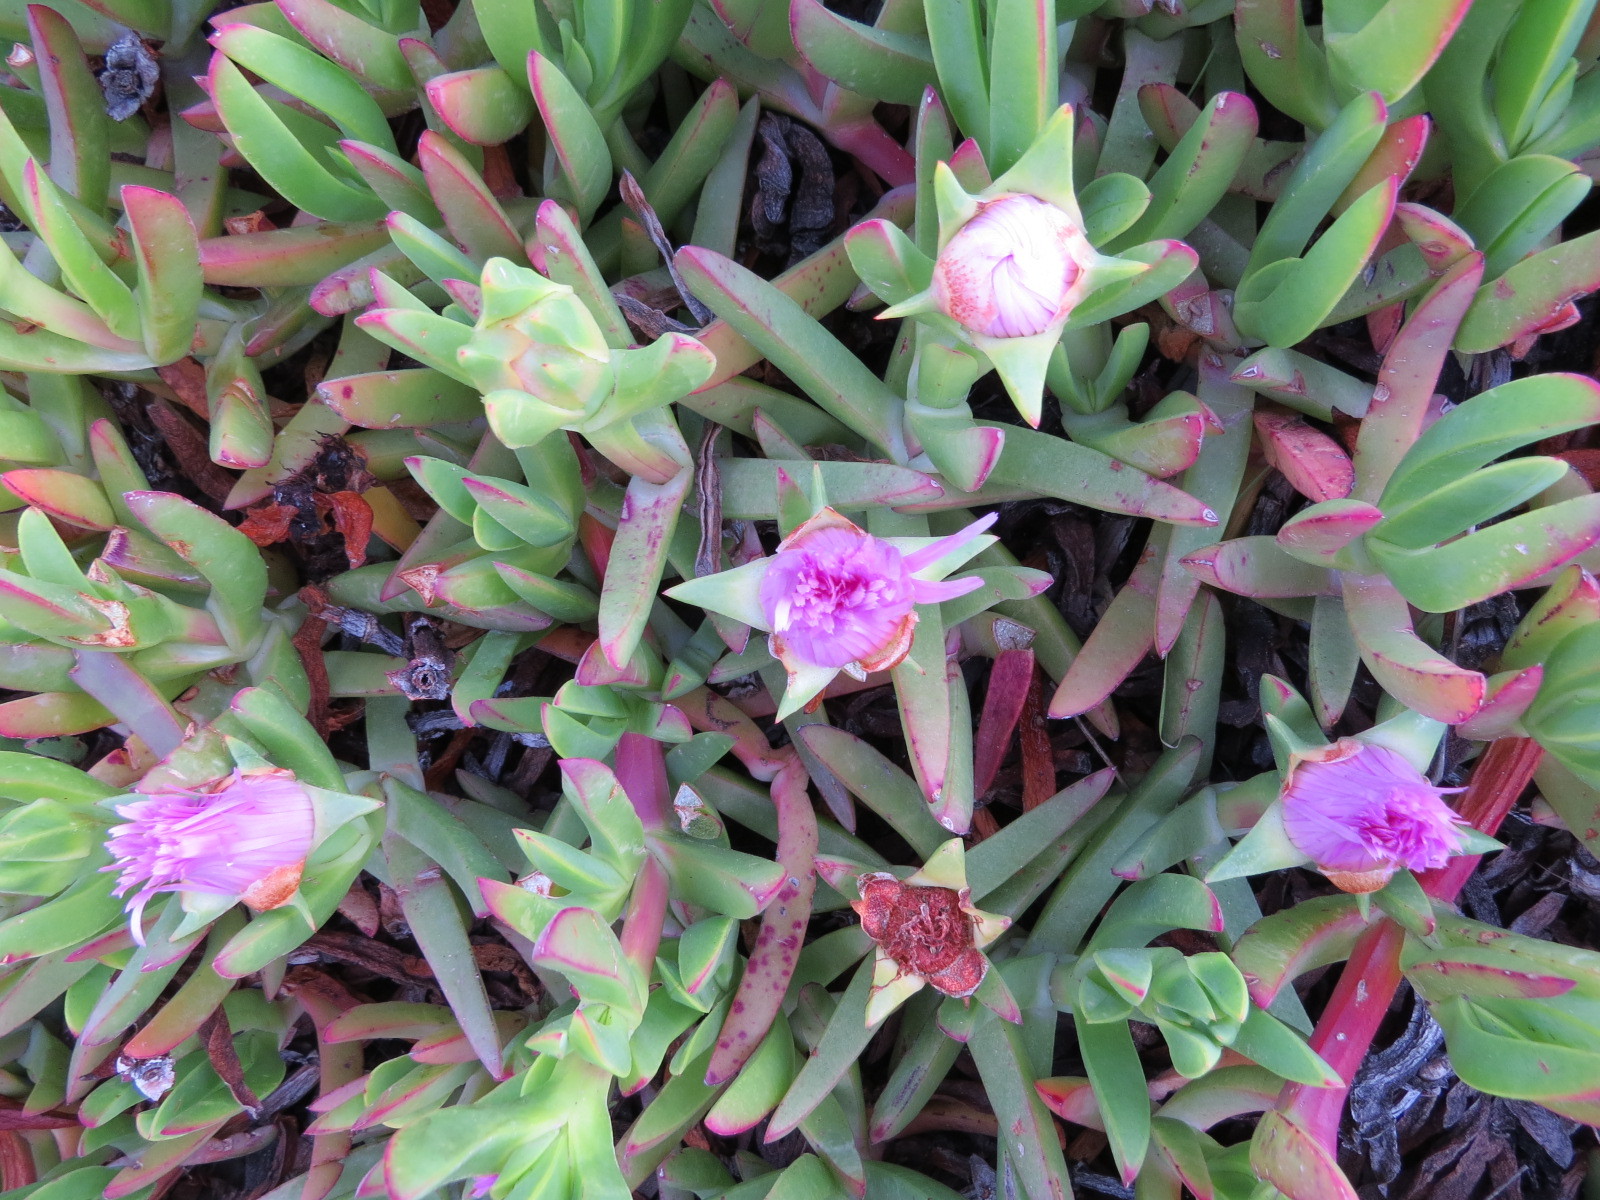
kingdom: Plantae
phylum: Tracheophyta
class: Magnoliopsida
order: Caryophyllales
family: Aizoaceae
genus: Carpobrotus
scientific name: Carpobrotus chilensis
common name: Sea fig
